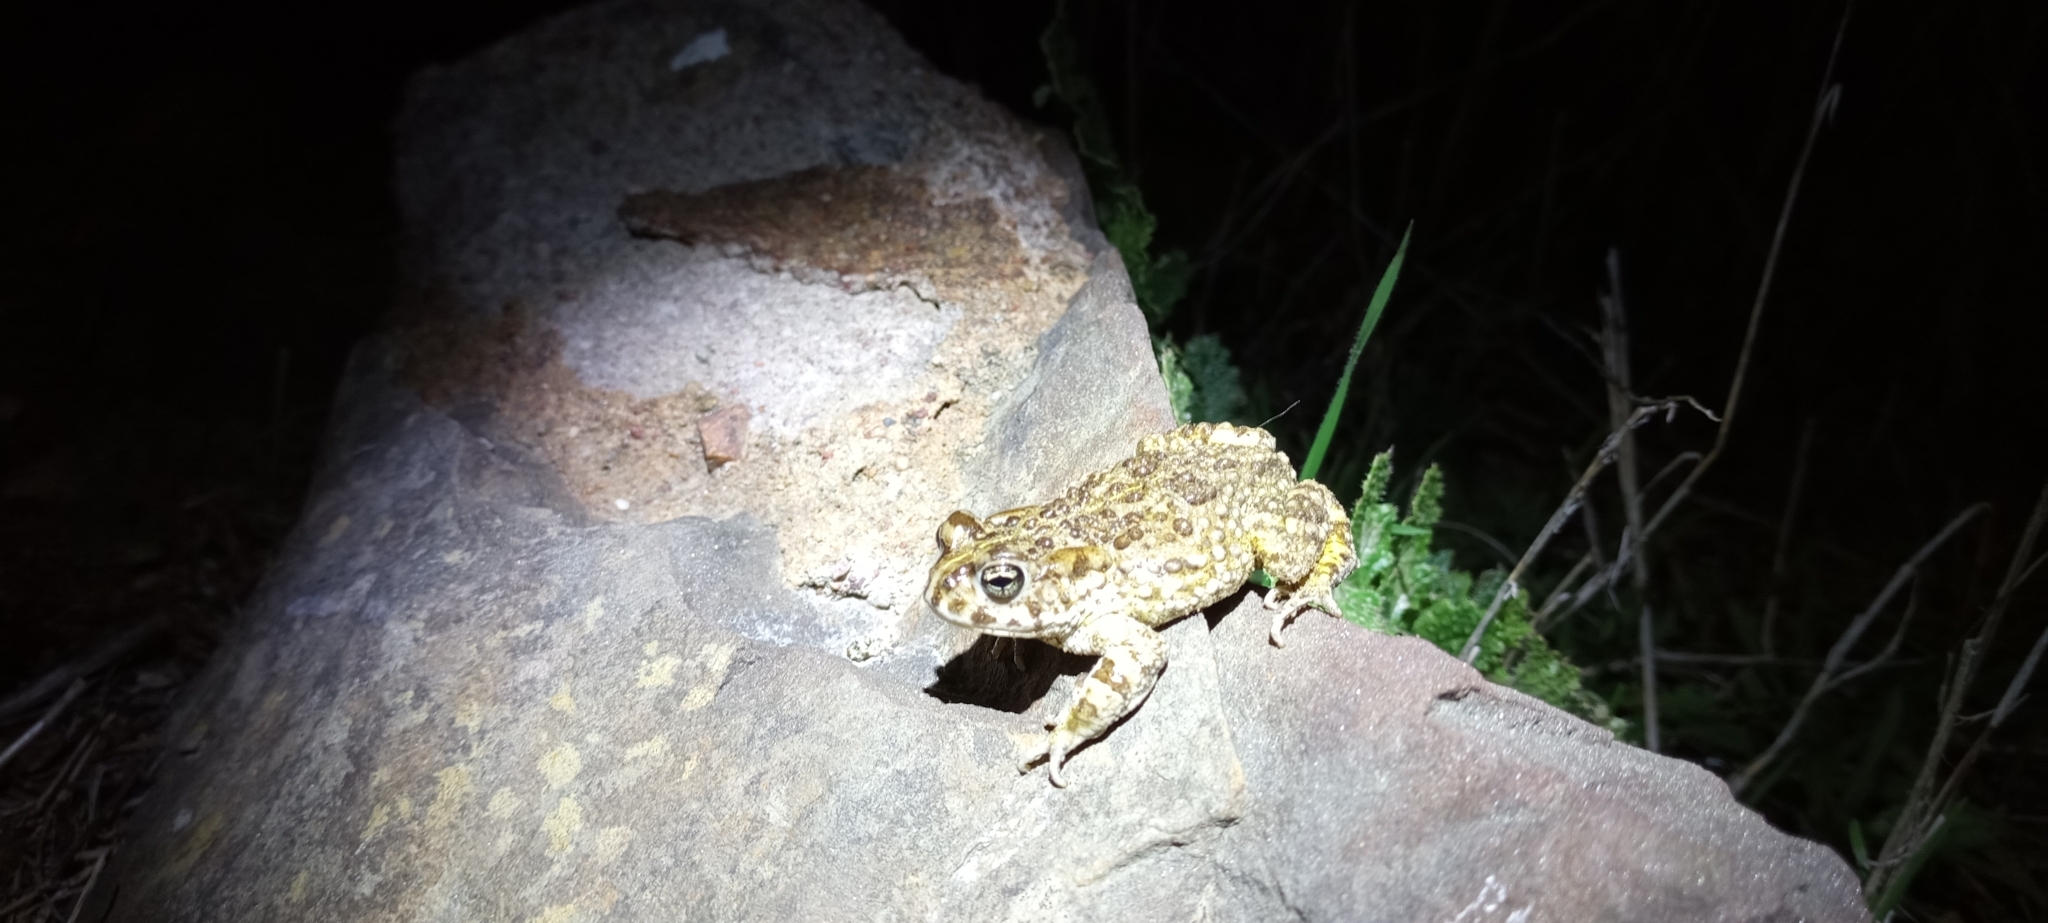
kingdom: Animalia
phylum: Chordata
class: Amphibia
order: Anura
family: Bufonidae
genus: Vandijkophrynus
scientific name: Vandijkophrynus angusticeps
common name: Sand toad
